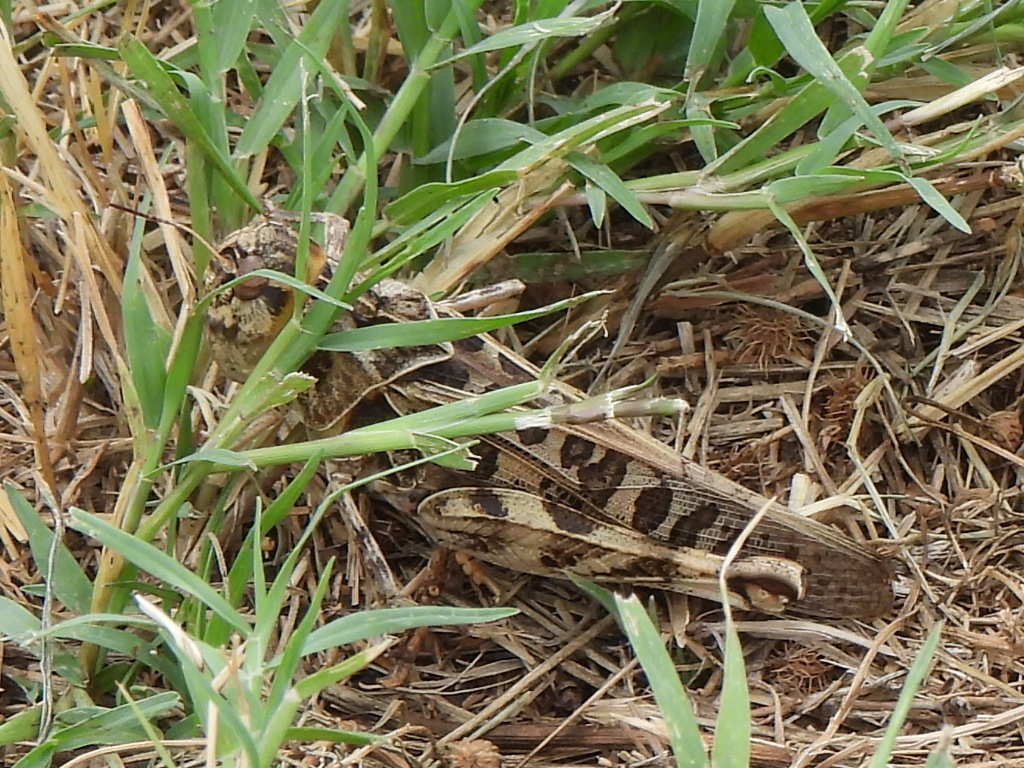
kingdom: Animalia
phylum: Arthropoda
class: Insecta
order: Orthoptera
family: Acrididae
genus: Hippiscus
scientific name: Hippiscus ocelote
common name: Wrinkled grasshopper
